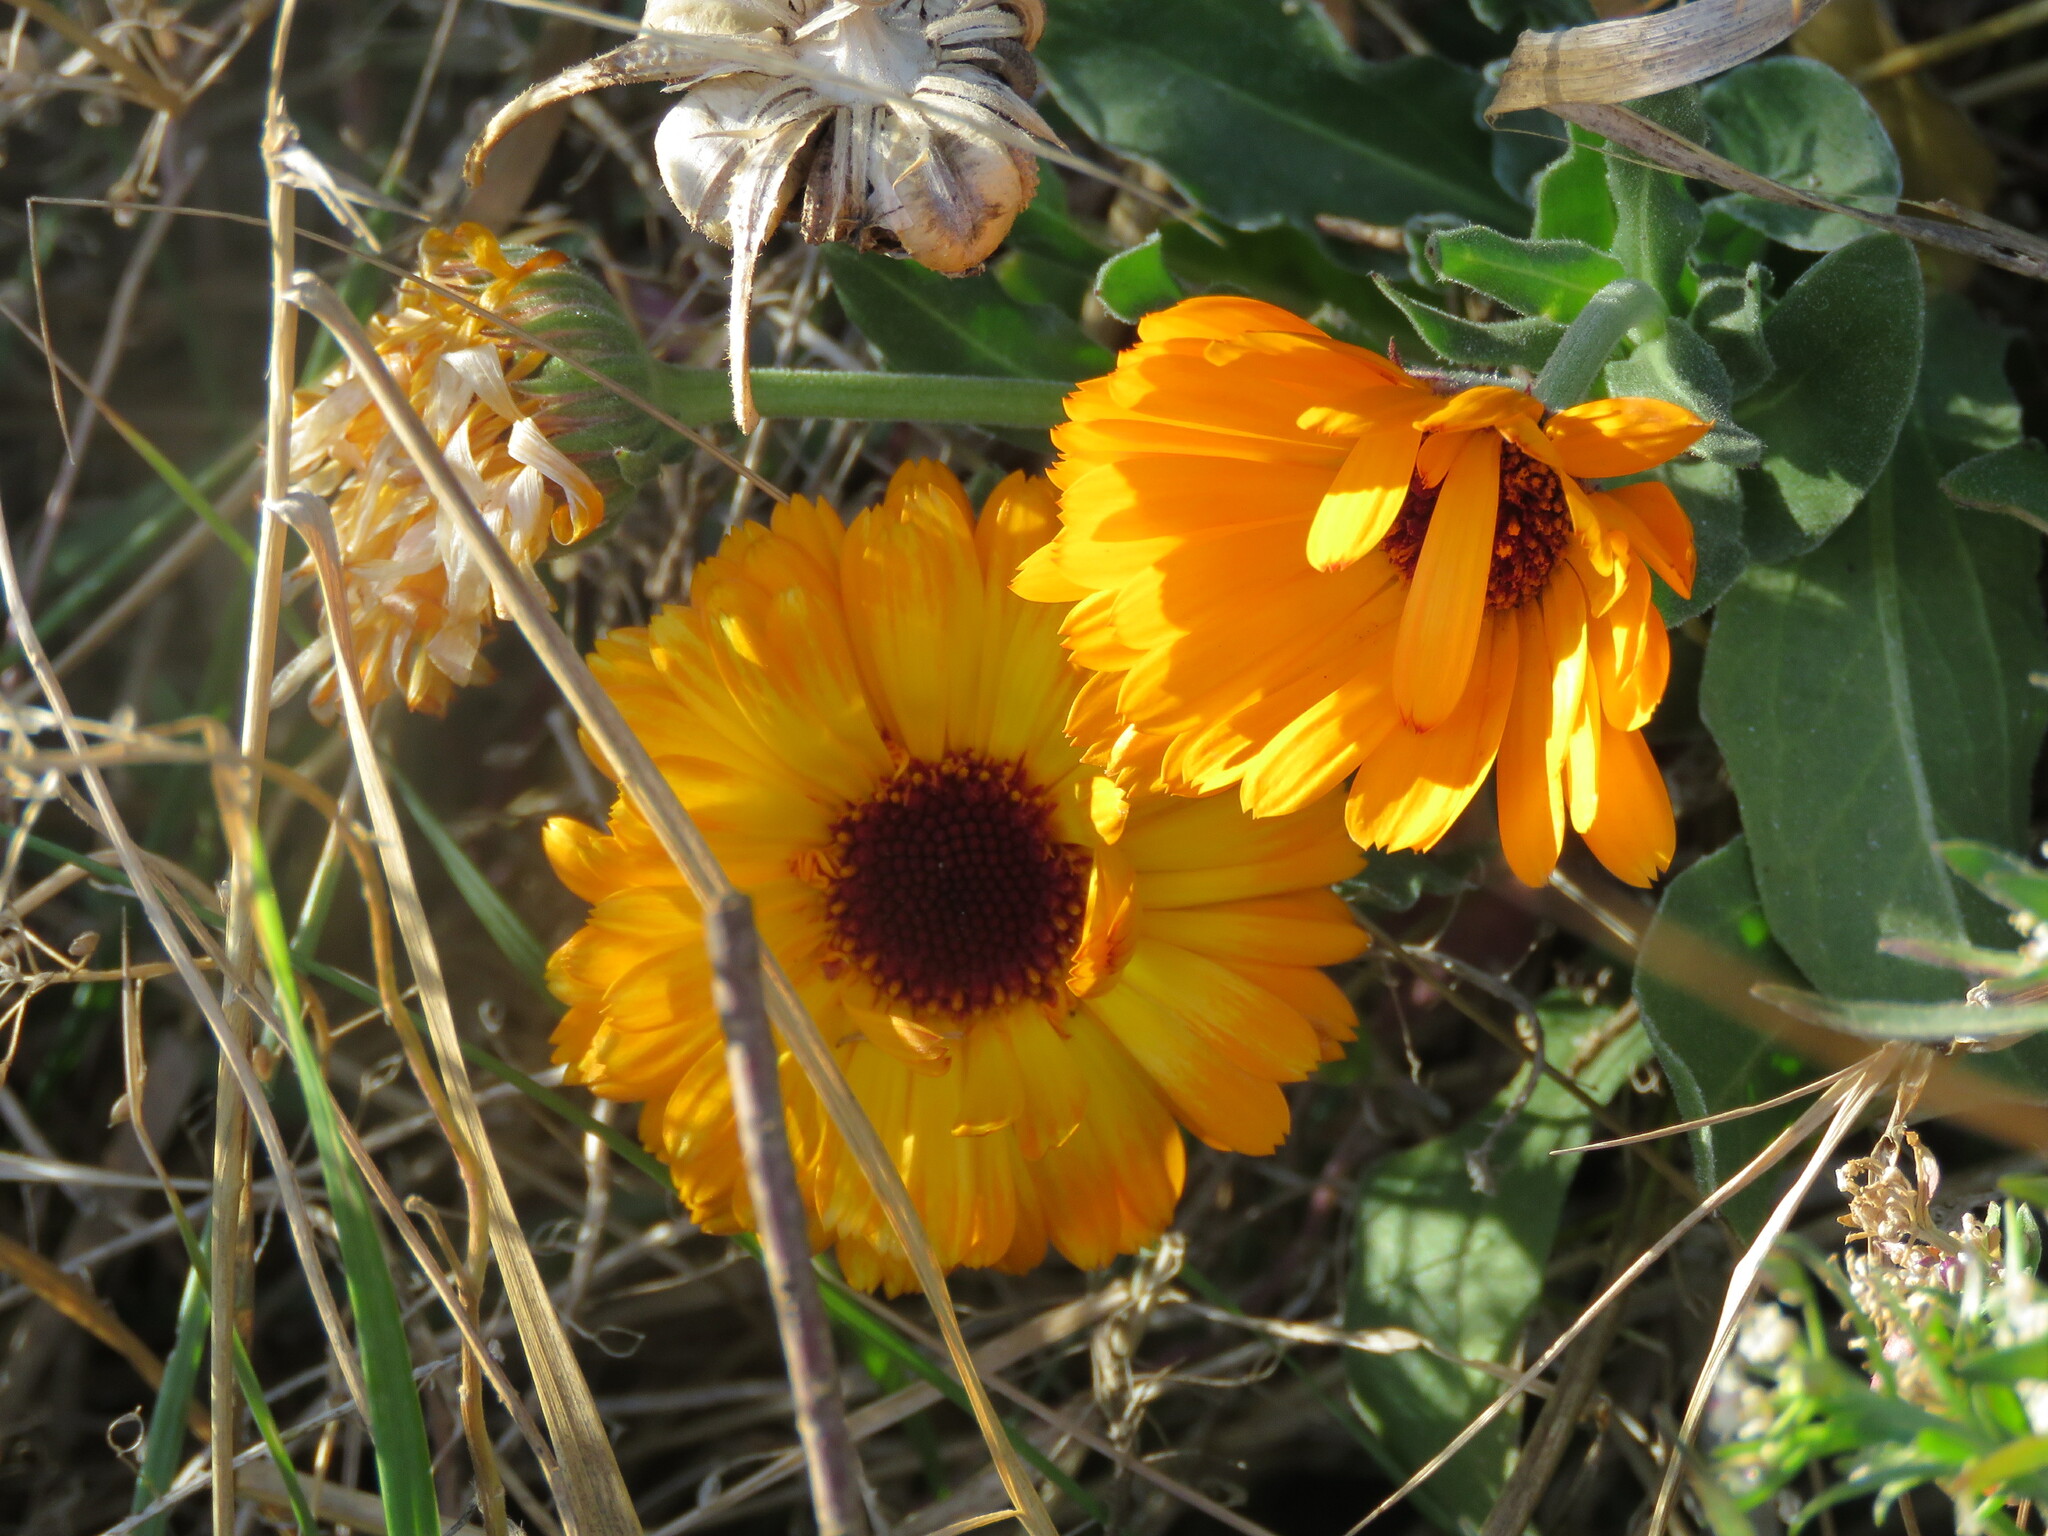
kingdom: Plantae
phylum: Tracheophyta
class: Magnoliopsida
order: Asterales
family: Asteraceae
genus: Calendula
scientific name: Calendula officinalis
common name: Pot marigold
